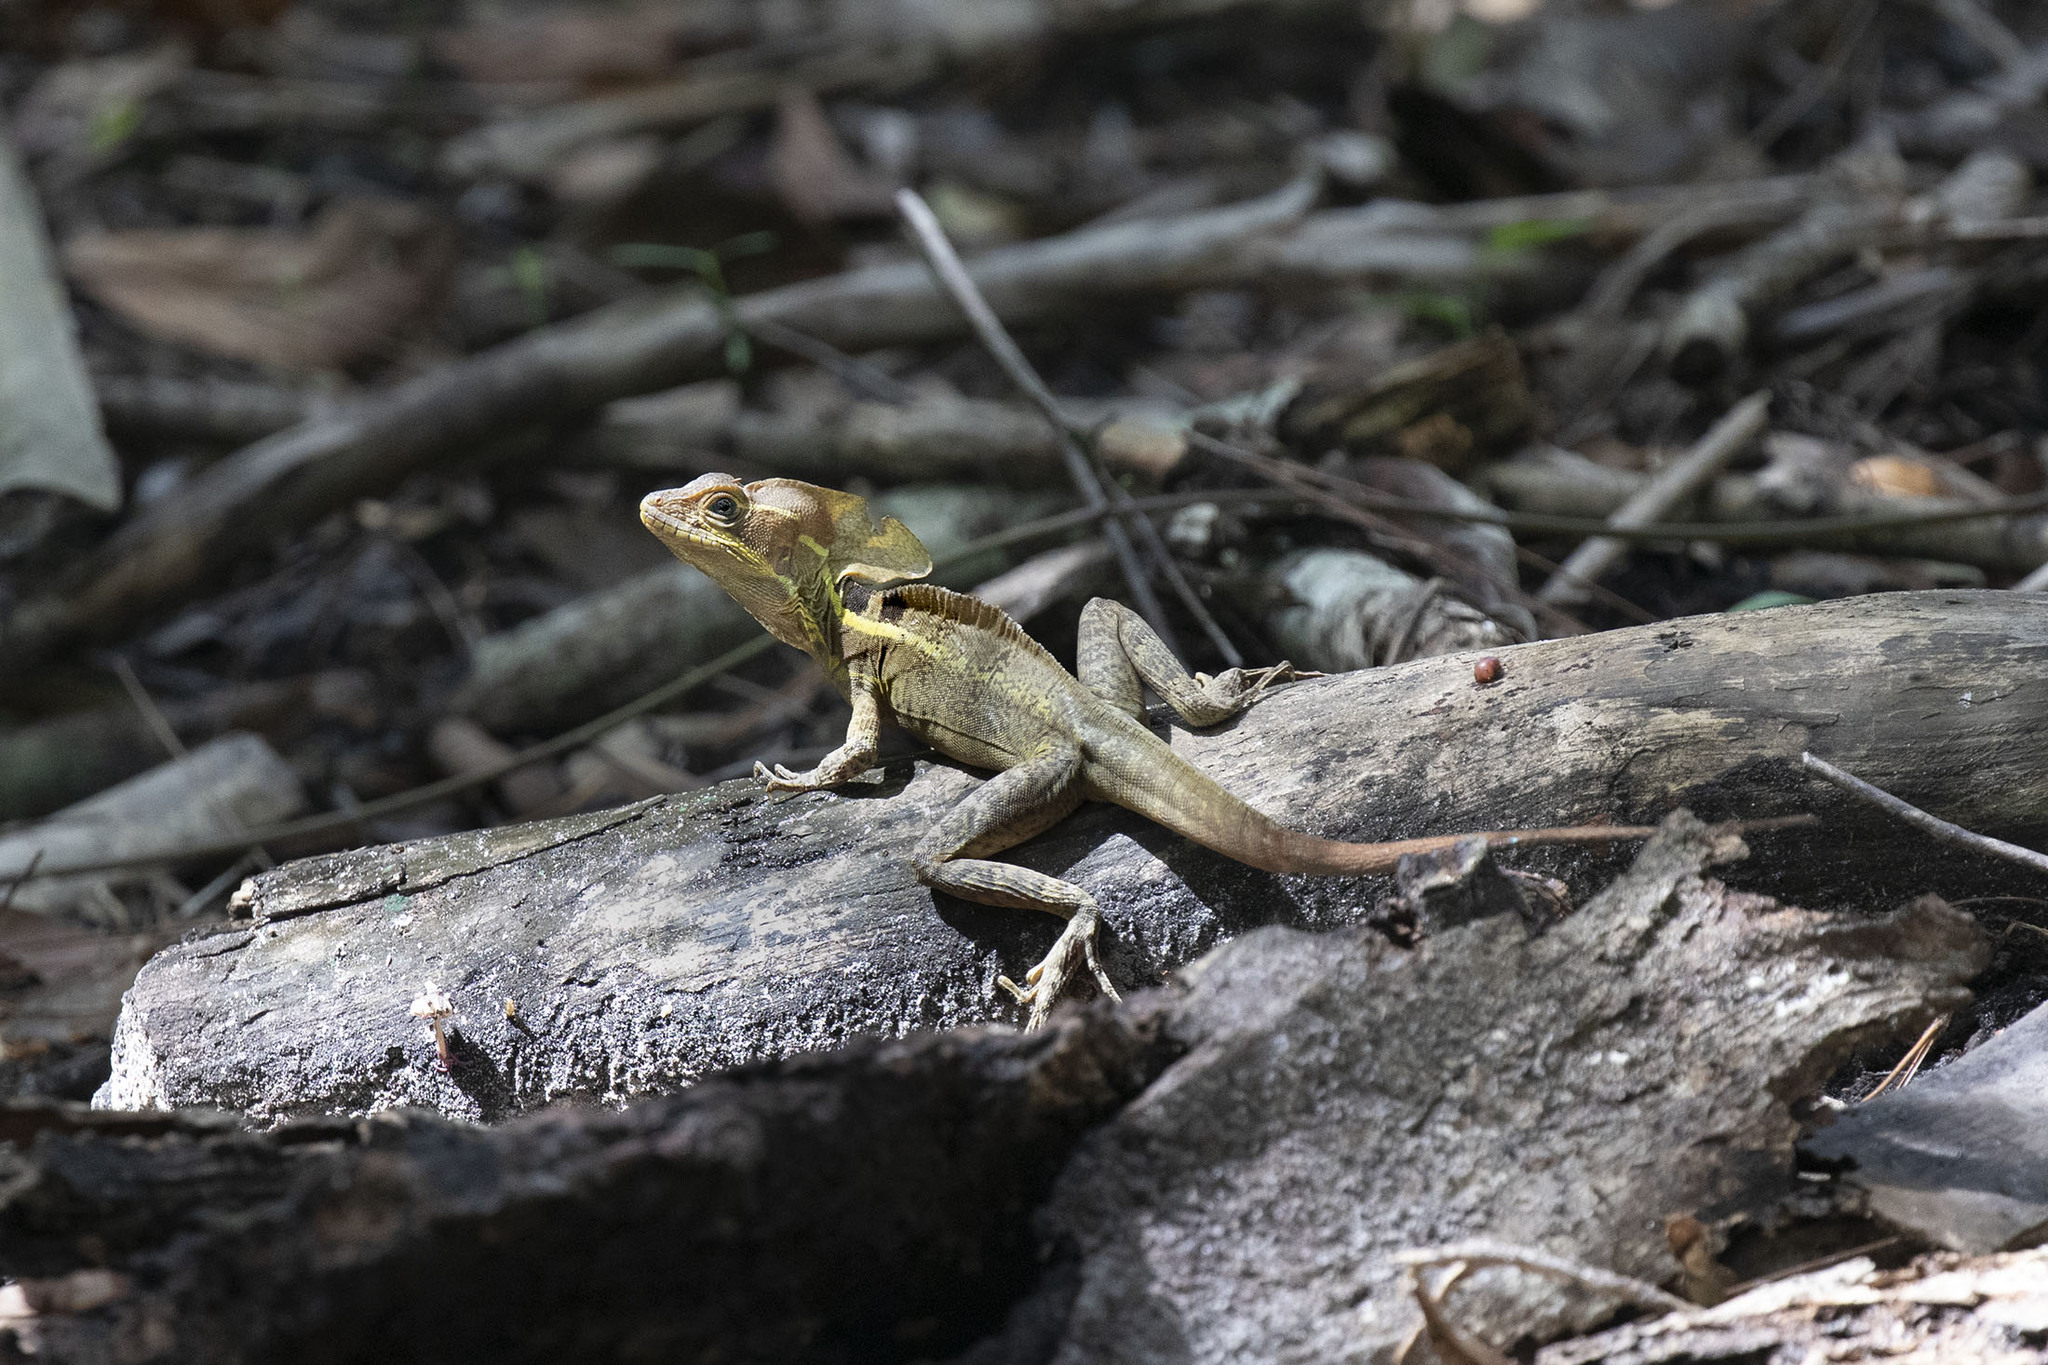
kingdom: Animalia
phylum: Chordata
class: Squamata
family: Corytophanidae
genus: Basiliscus
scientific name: Basiliscus vittatus
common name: Brown basilisk
